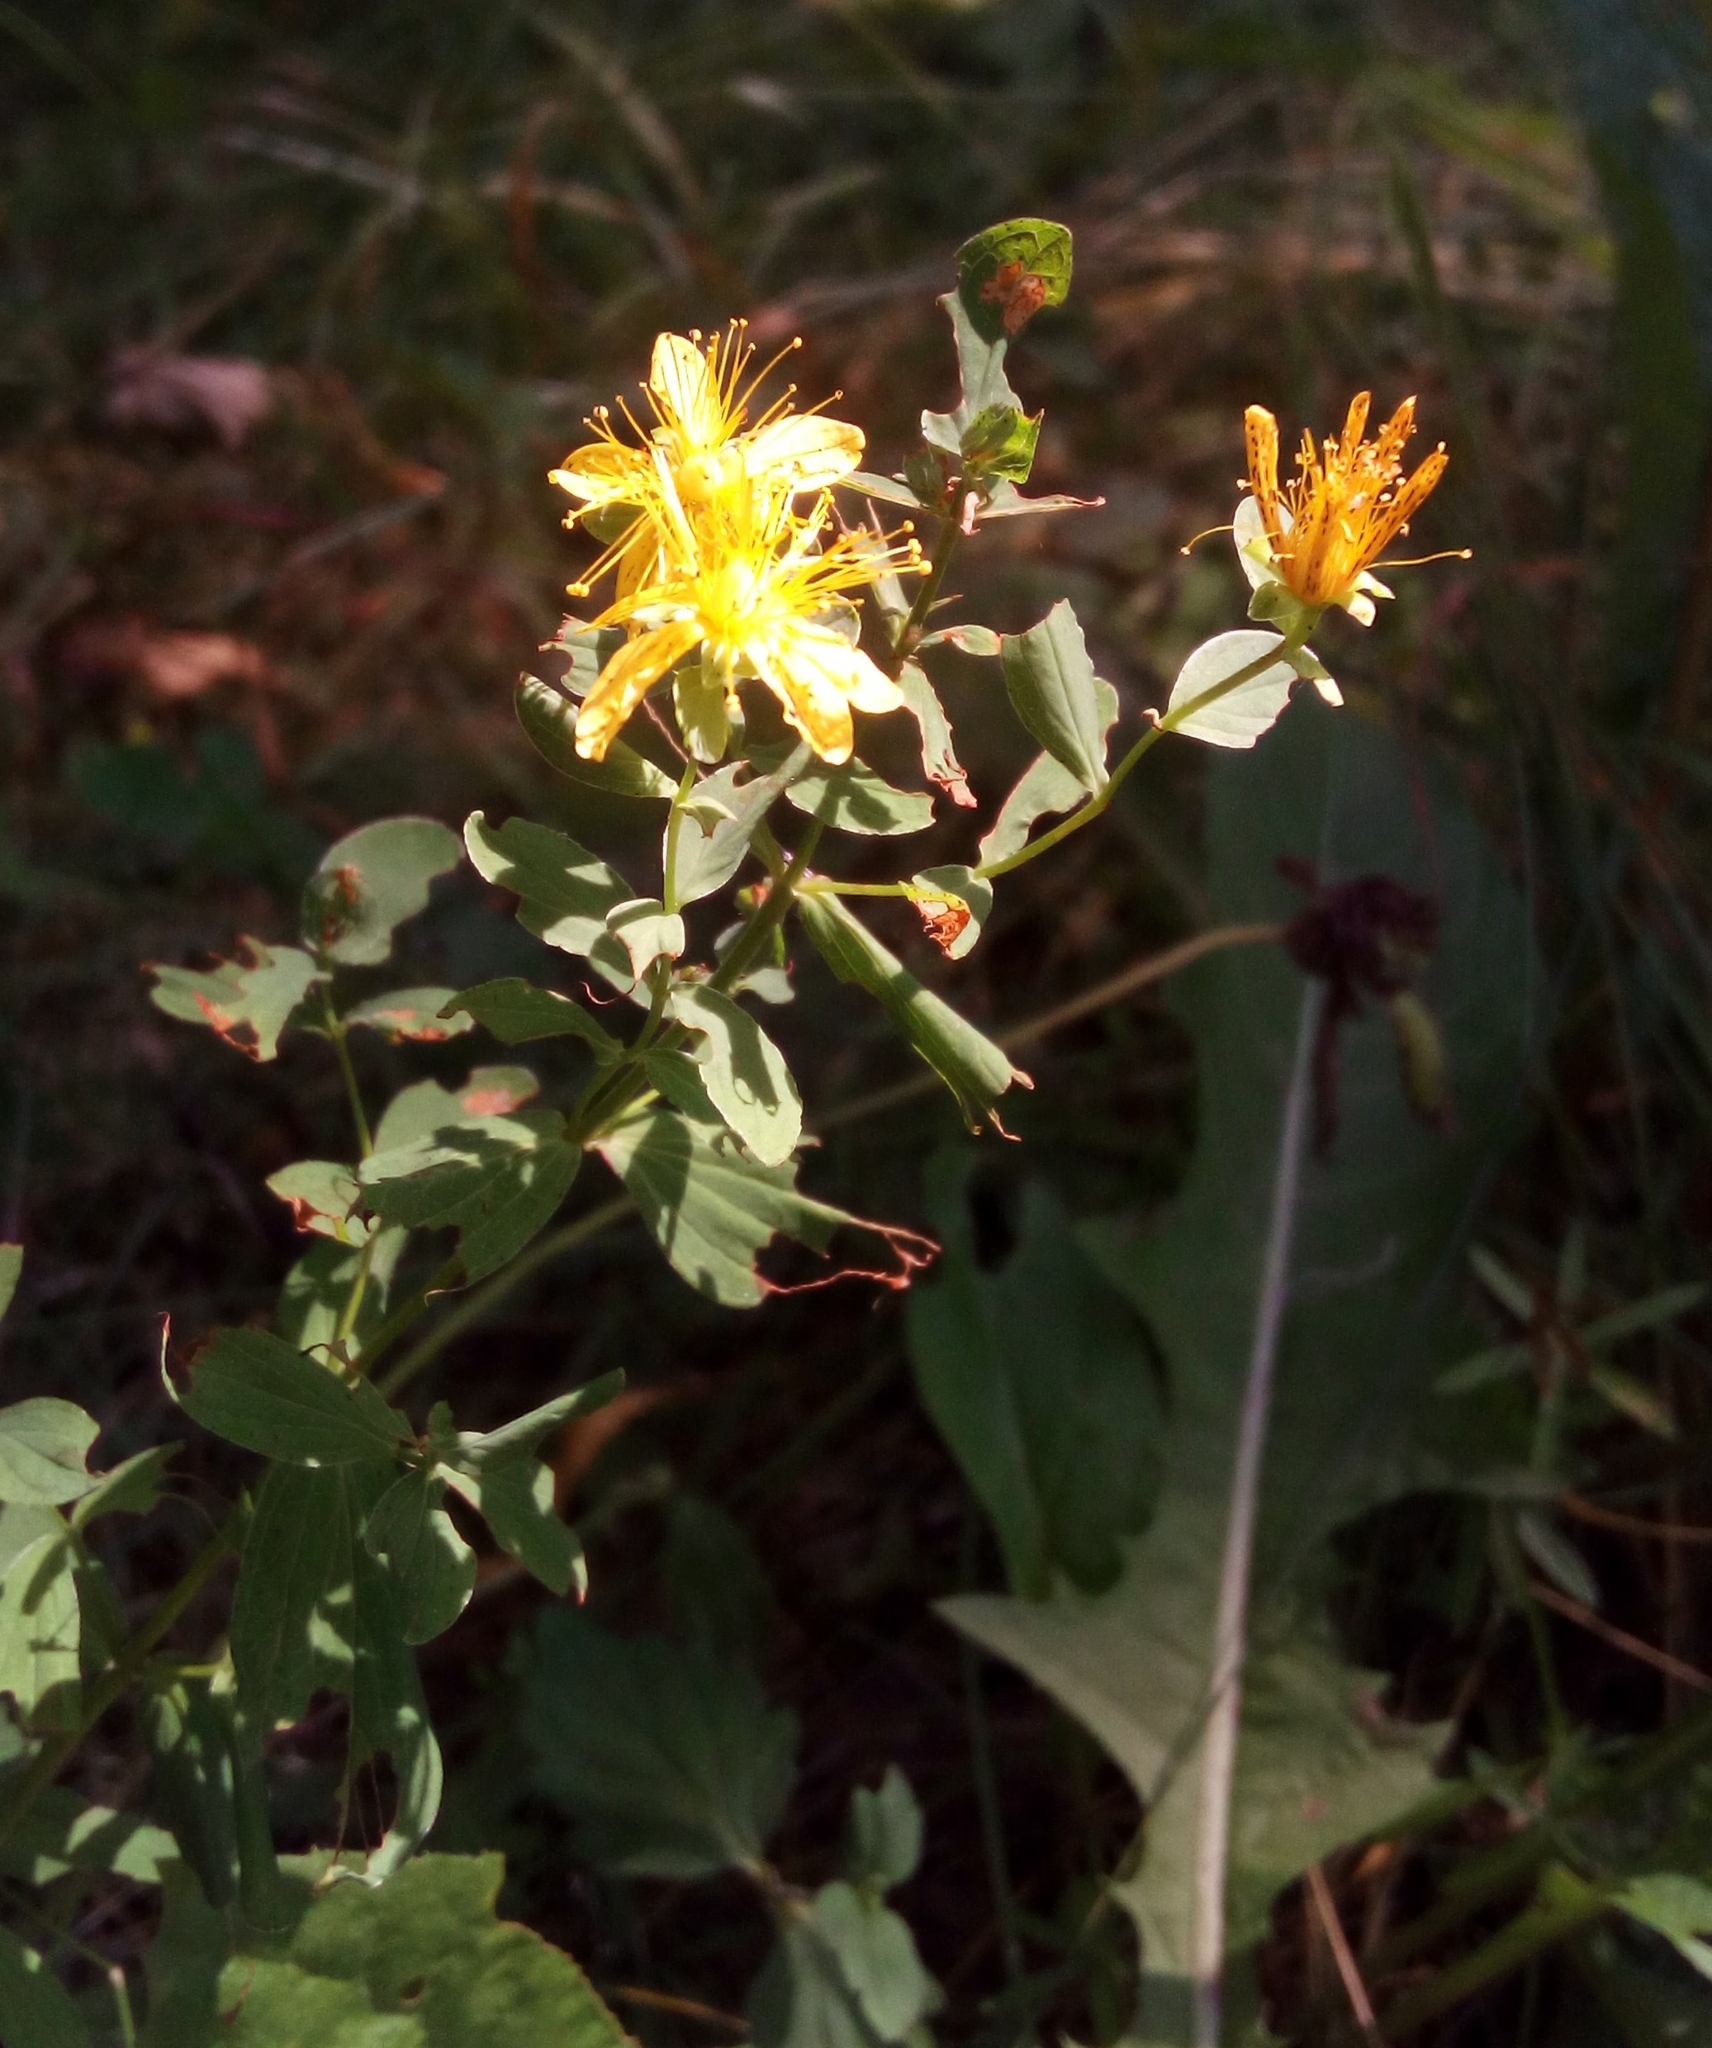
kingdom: Plantae
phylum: Tracheophyta
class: Magnoliopsida
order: Malpighiales
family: Hypericaceae
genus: Hypericum
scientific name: Hypericum perforatum
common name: Common st. johnswort
